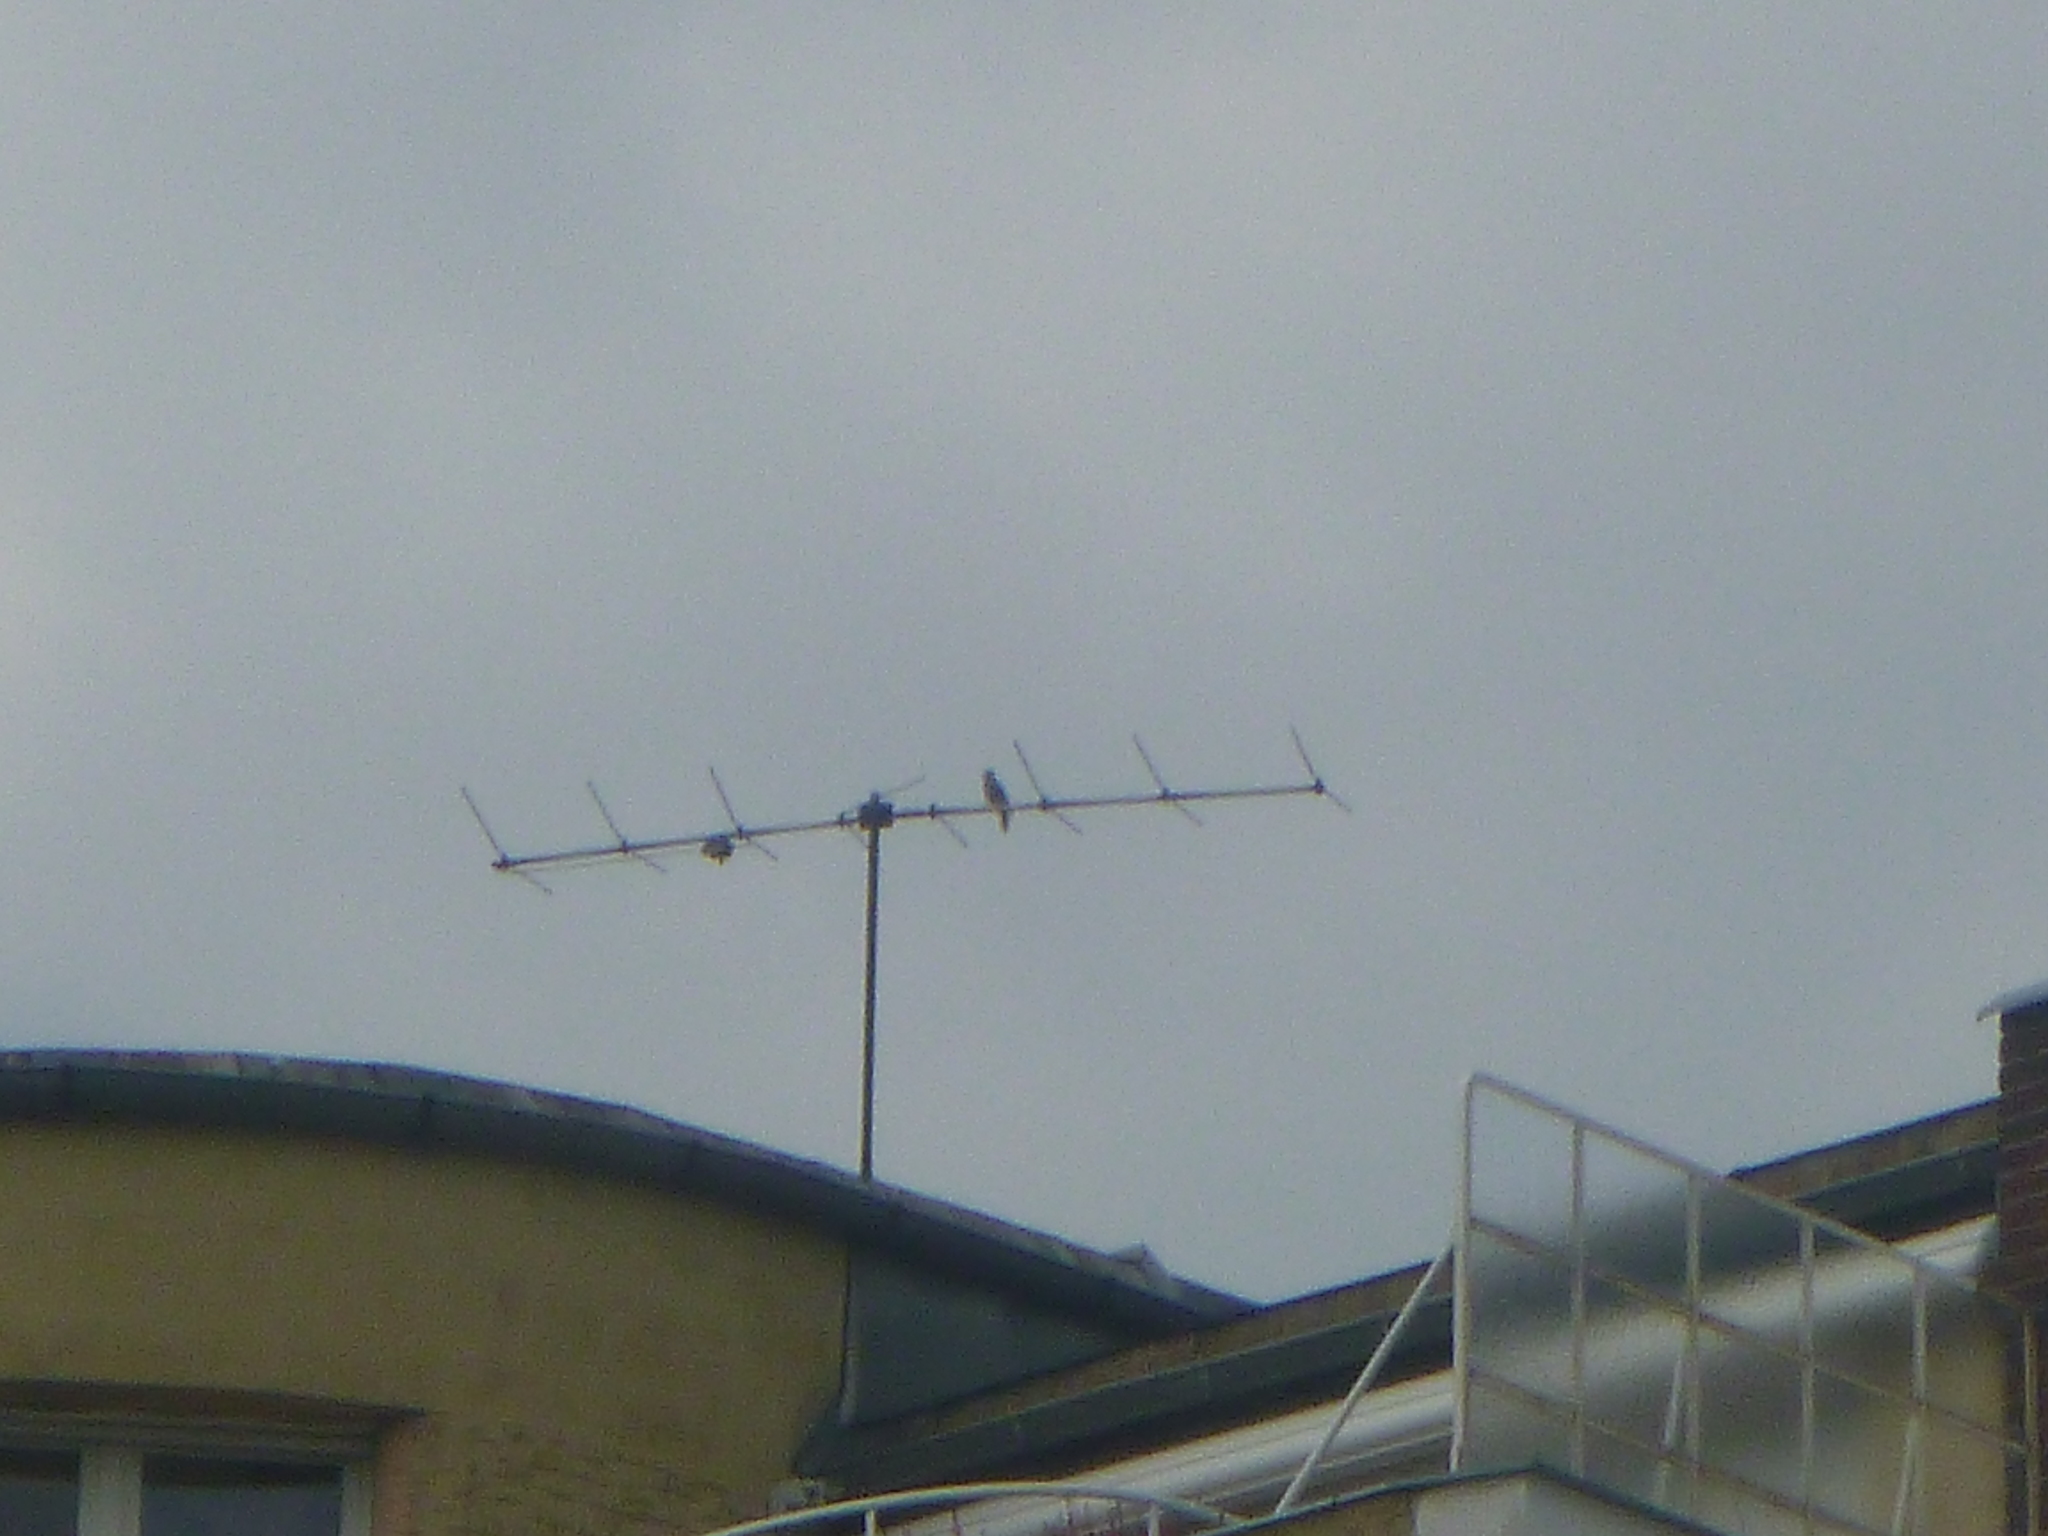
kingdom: Animalia
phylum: Chordata
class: Aves
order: Piciformes
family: Picidae
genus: Dendrocopos
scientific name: Dendrocopos major
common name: Great spotted woodpecker
